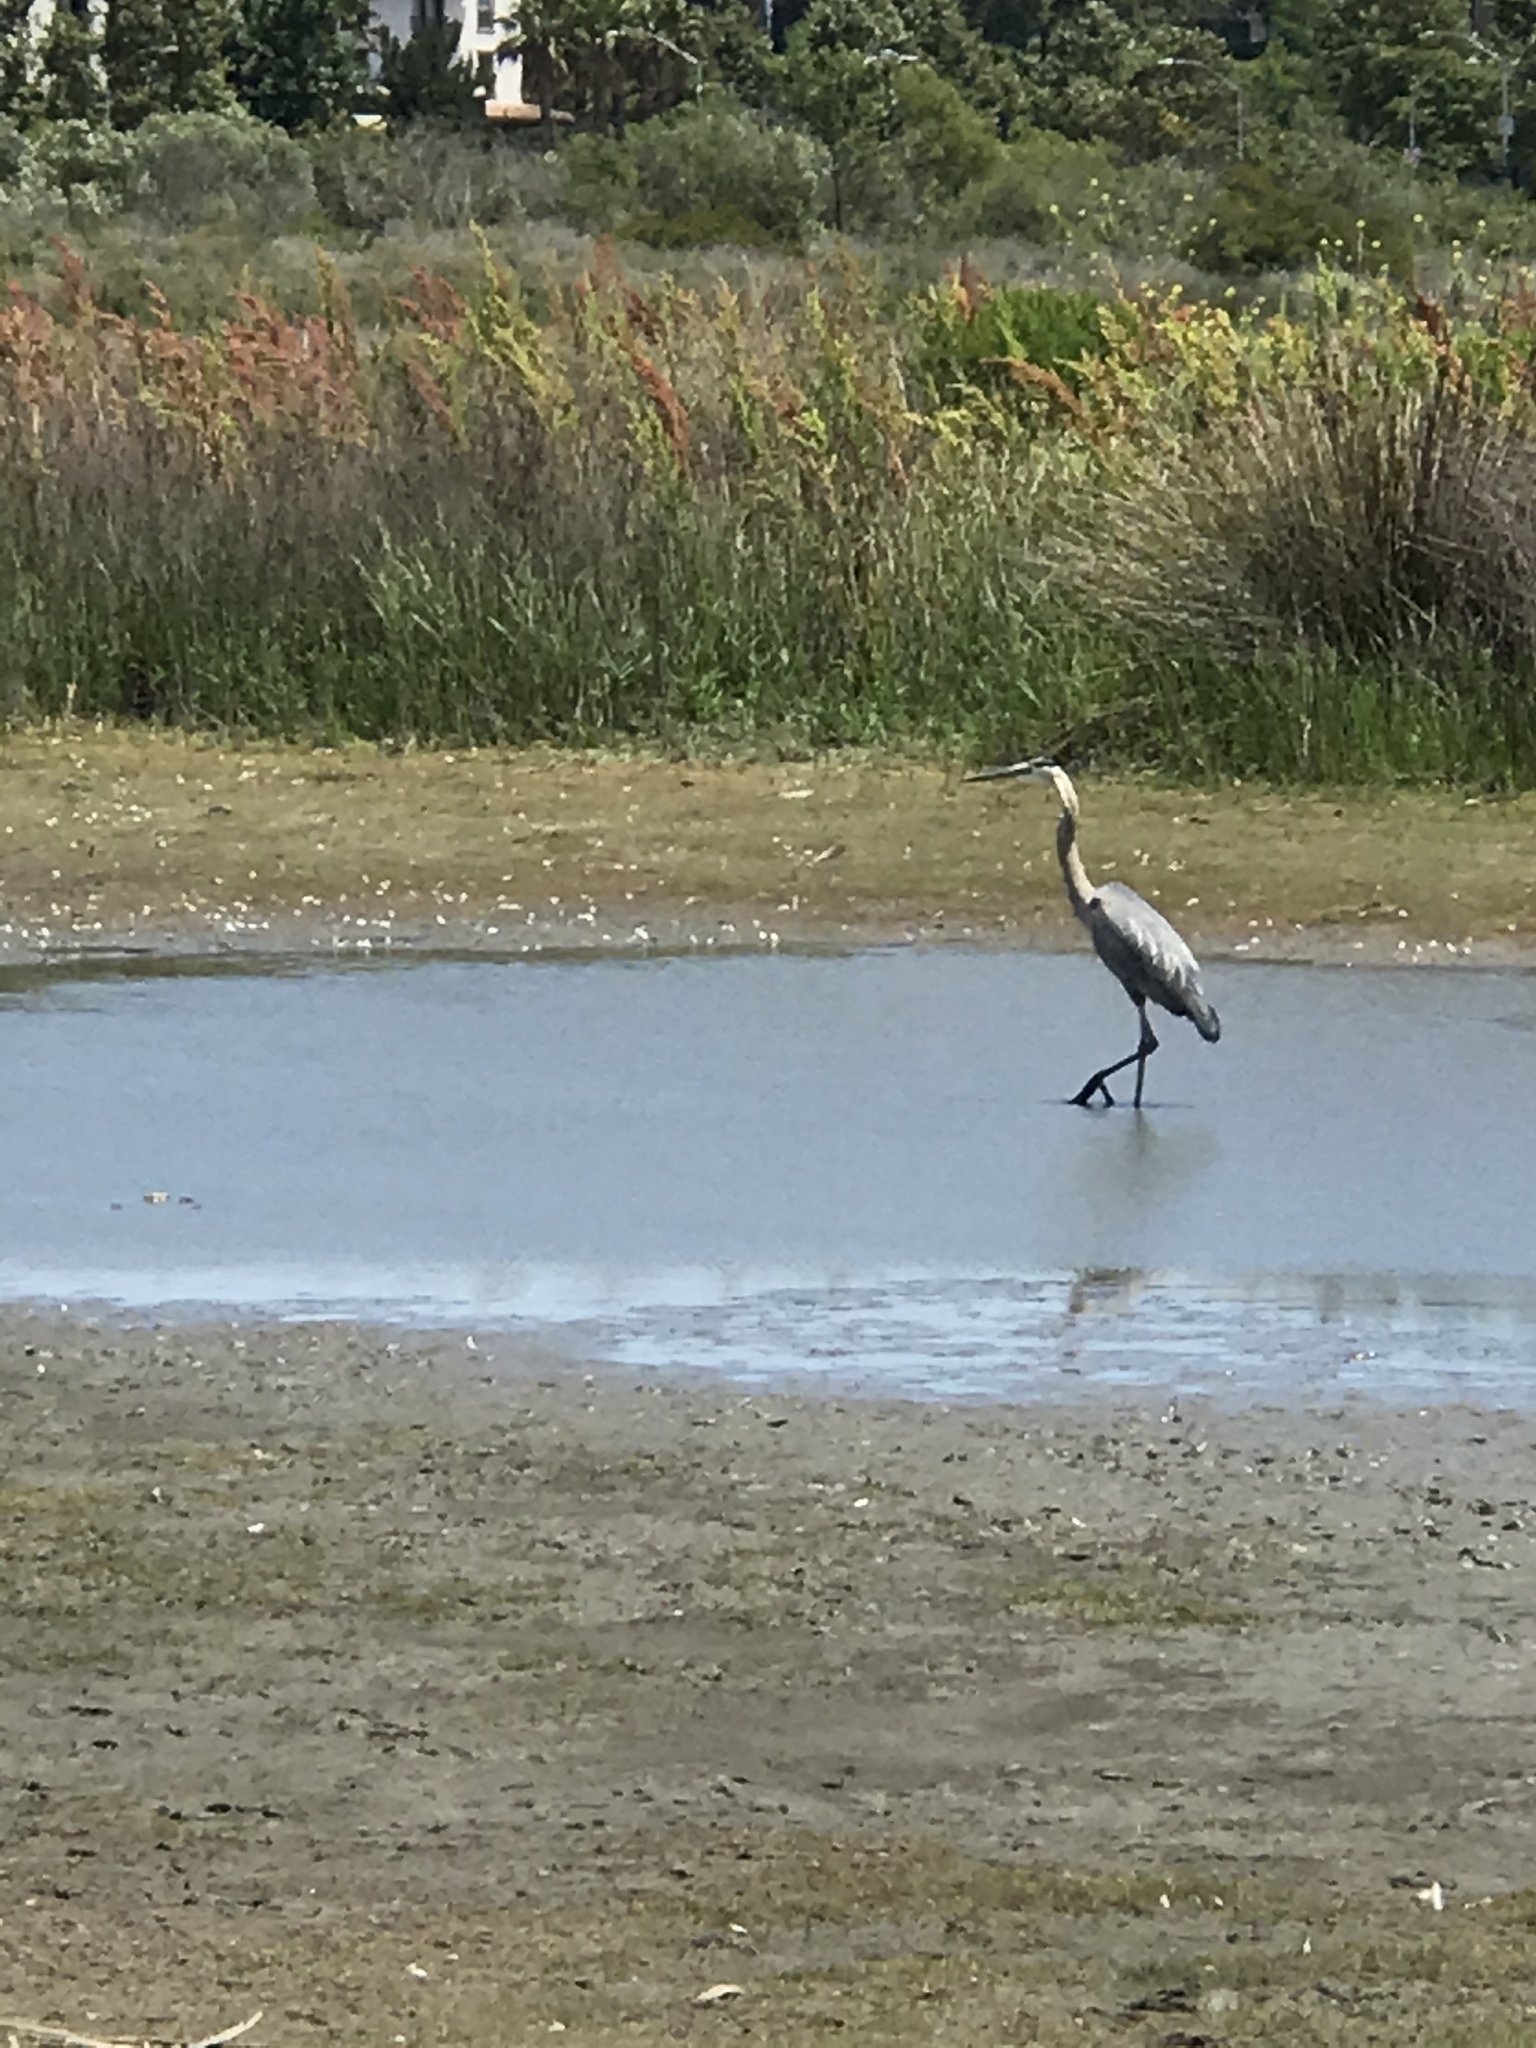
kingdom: Animalia
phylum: Chordata
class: Aves
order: Pelecaniformes
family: Ardeidae
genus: Ardea
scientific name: Ardea herodias
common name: Great blue heron
